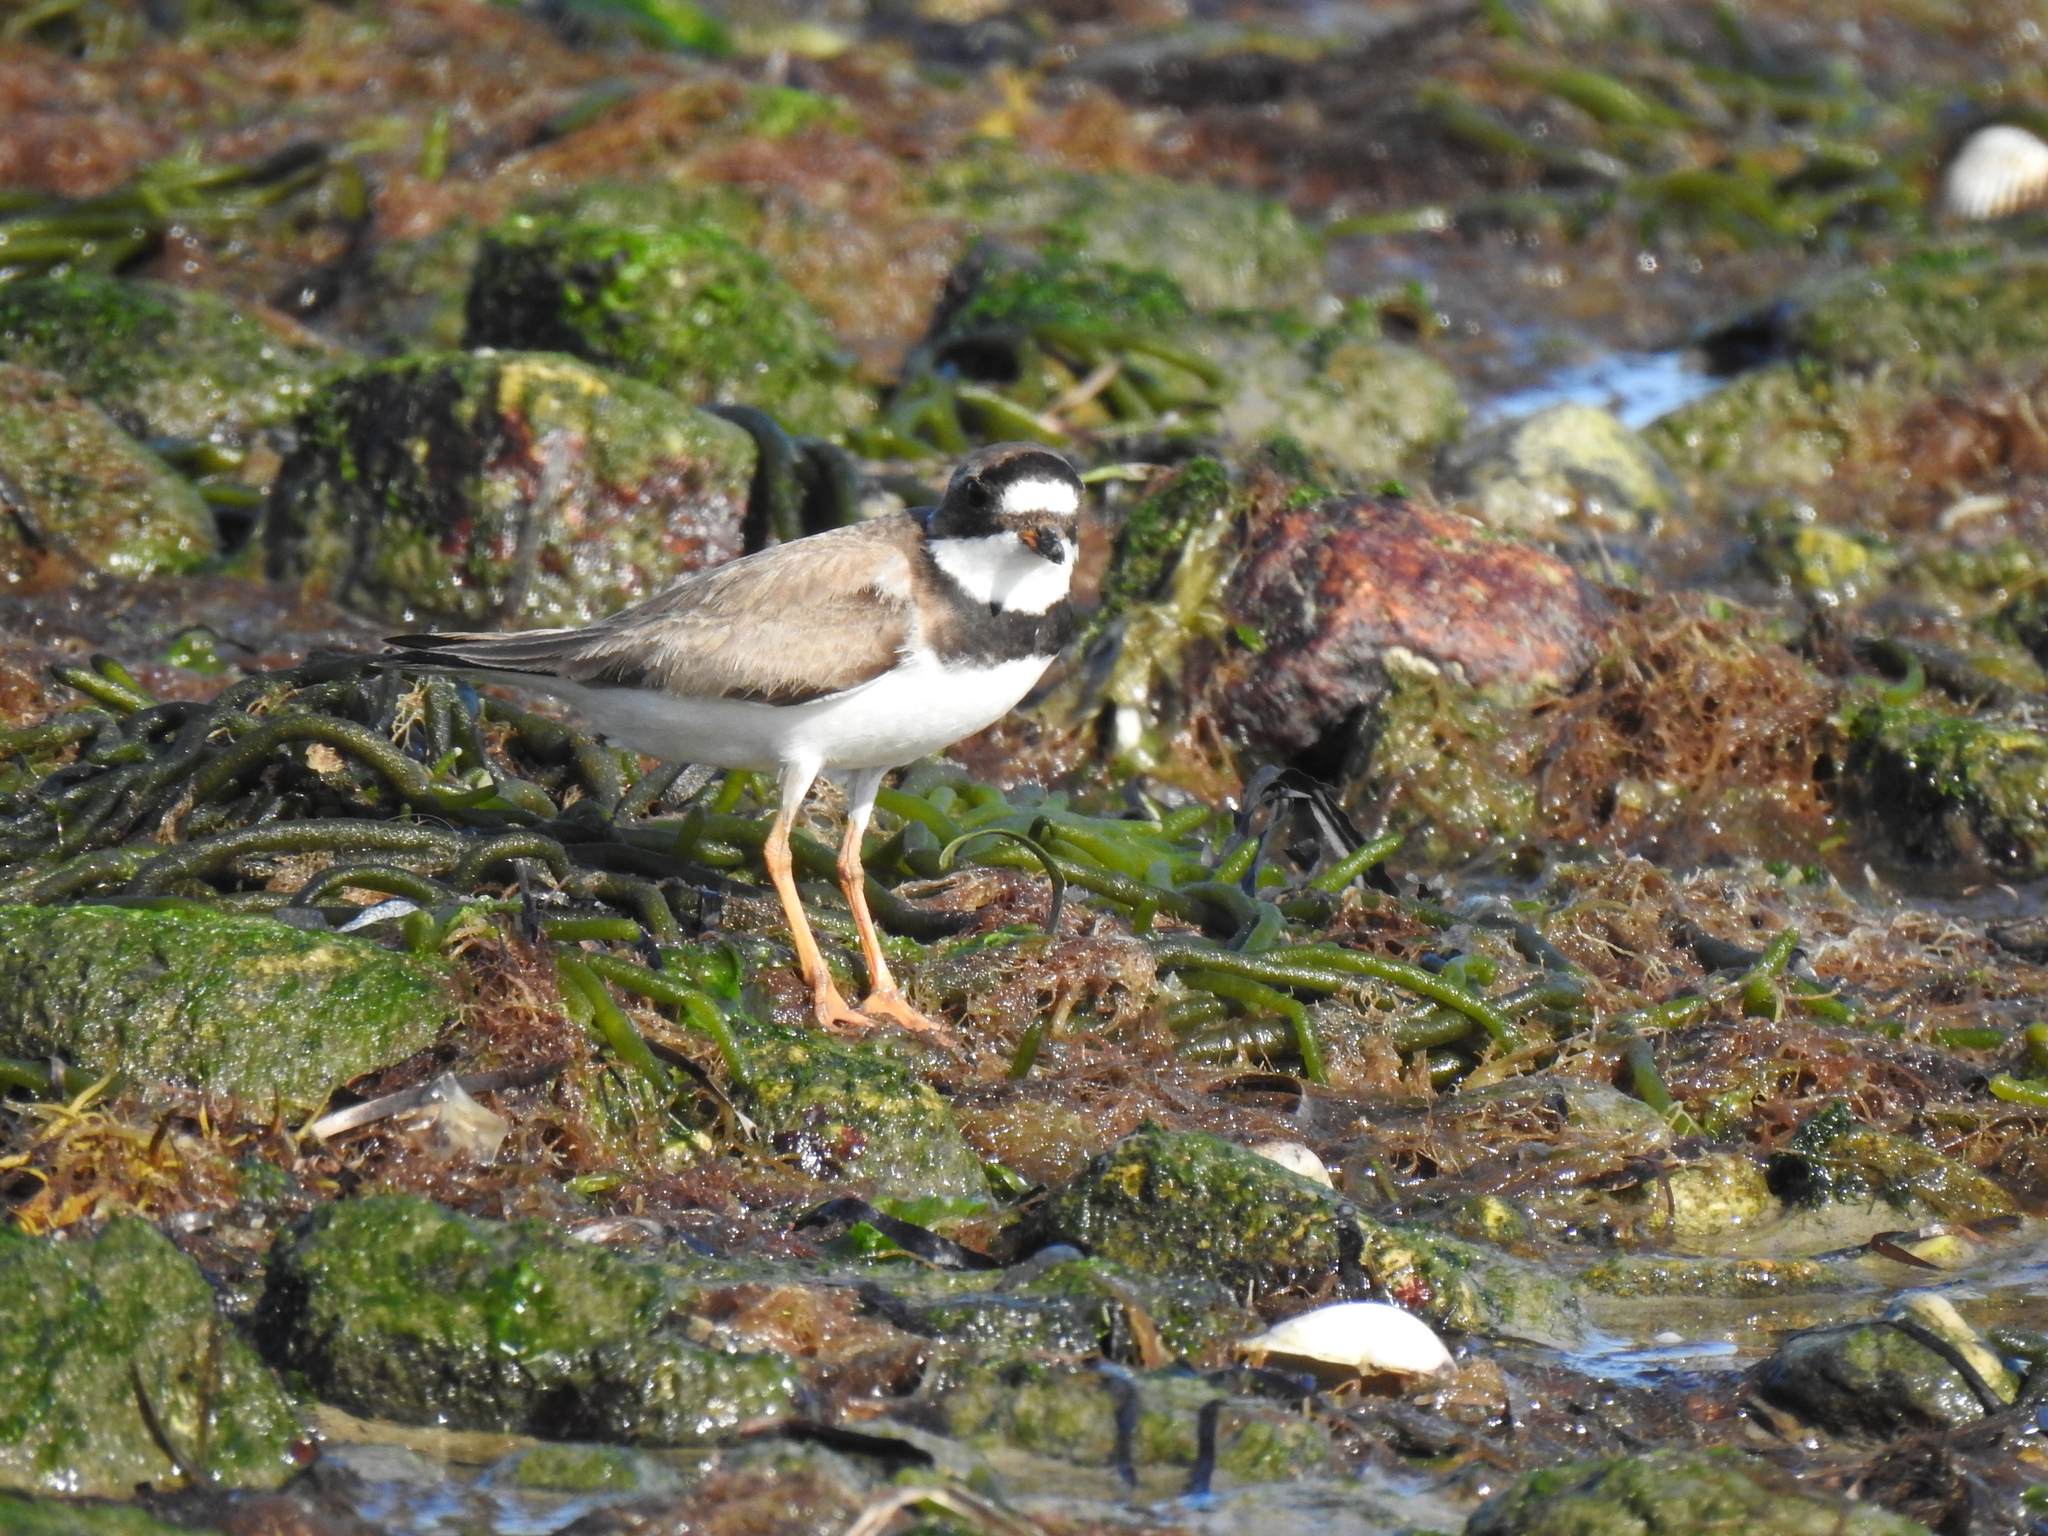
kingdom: Animalia
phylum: Chordata
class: Aves
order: Charadriiformes
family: Charadriidae
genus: Charadrius
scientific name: Charadrius semipalmatus
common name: Semipalmated plover
